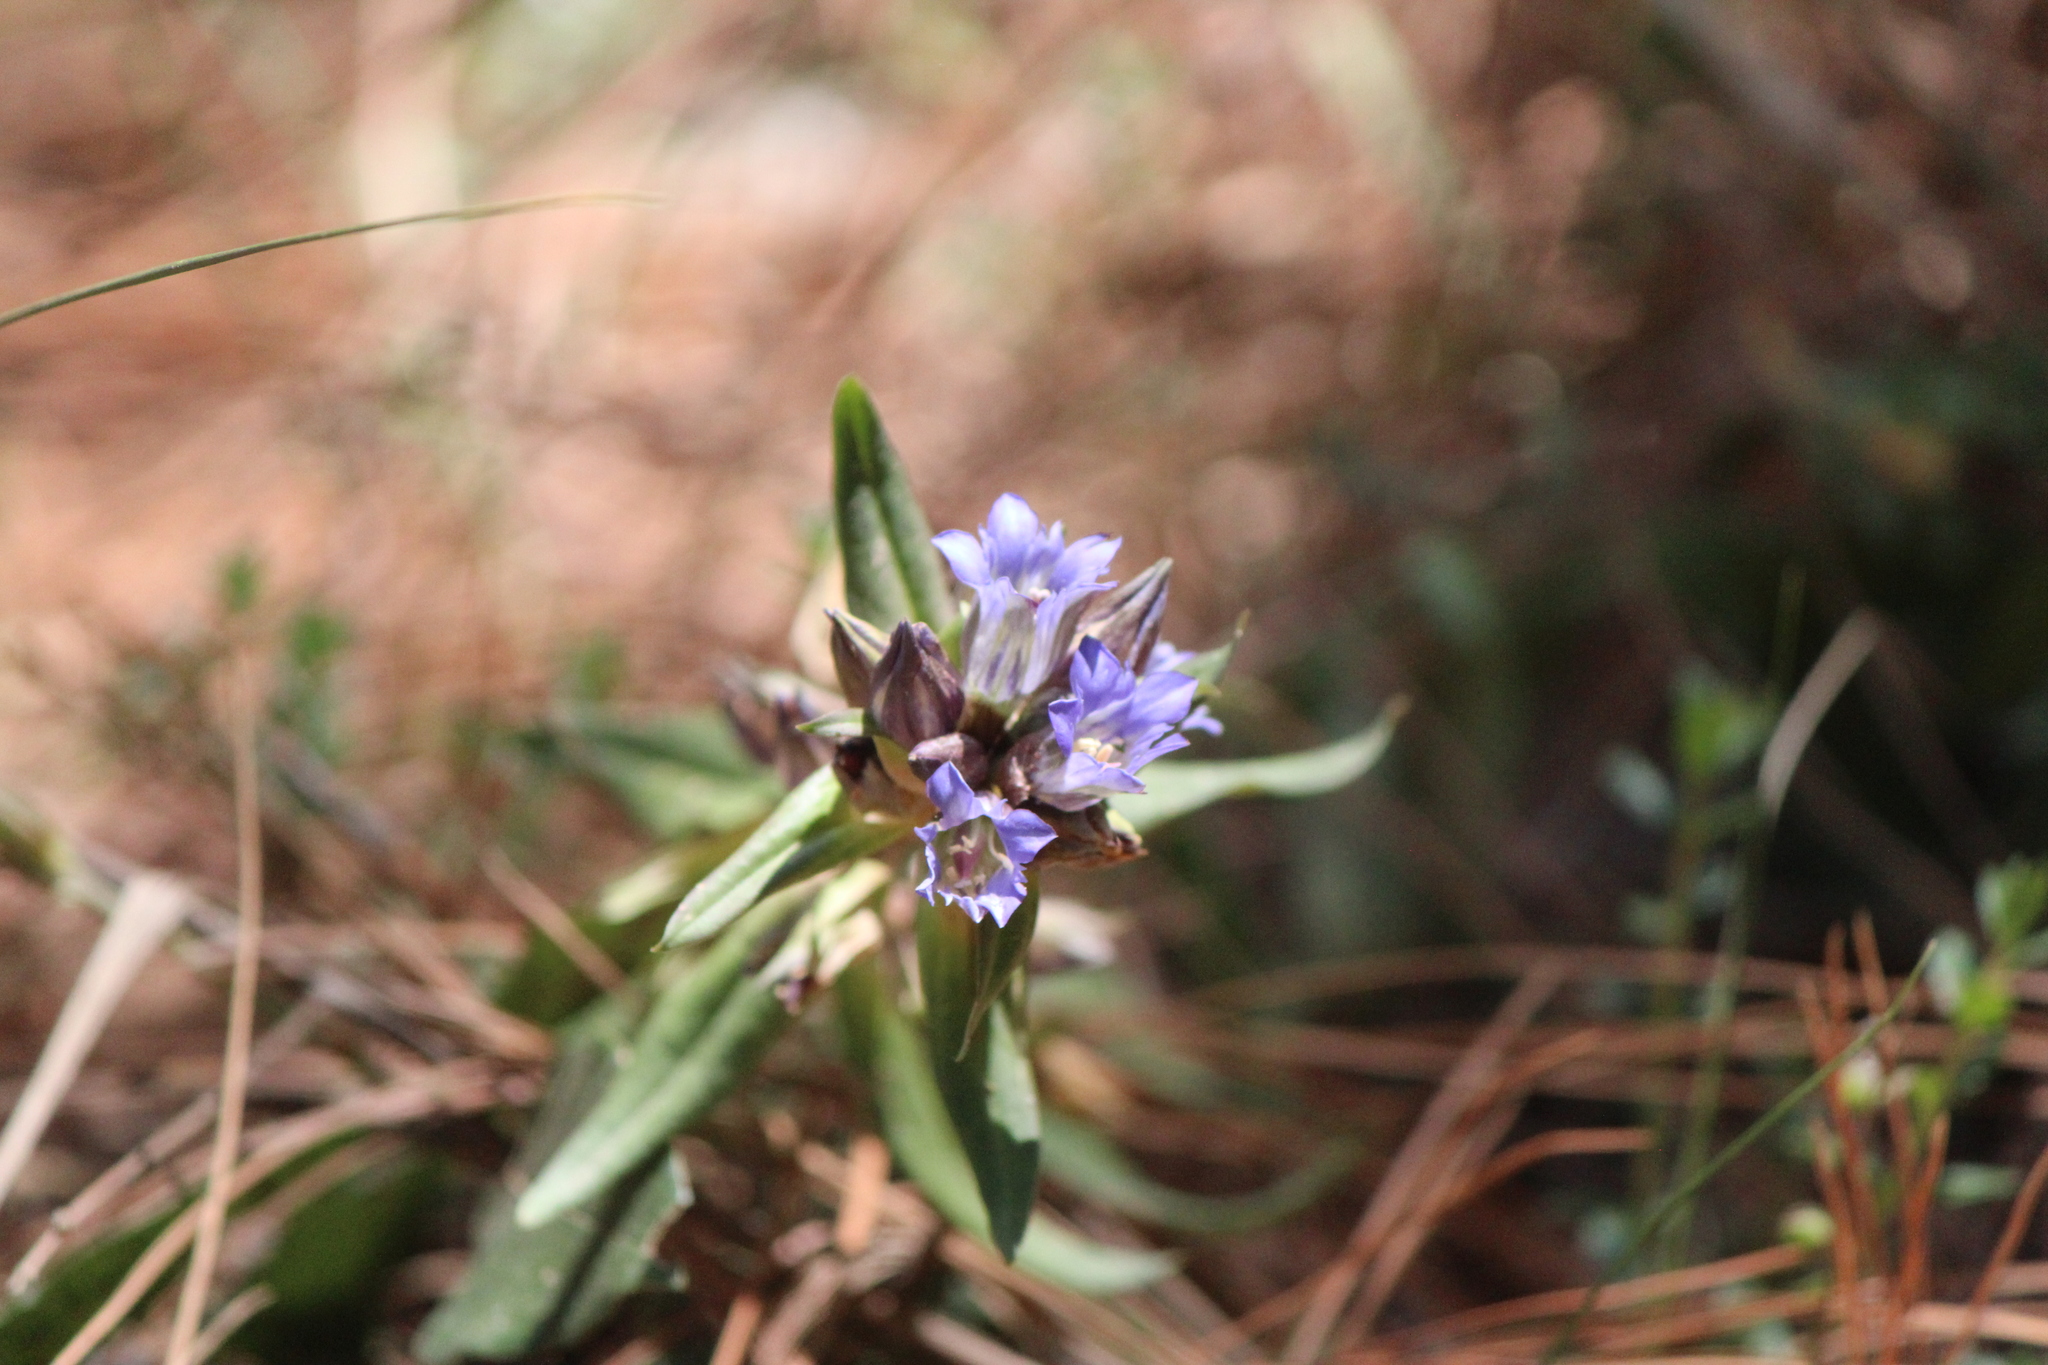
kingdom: Plantae
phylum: Tracheophyta
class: Magnoliopsida
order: Gentianales
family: Gentianaceae
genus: Gentiana
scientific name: Gentiana spathacea
